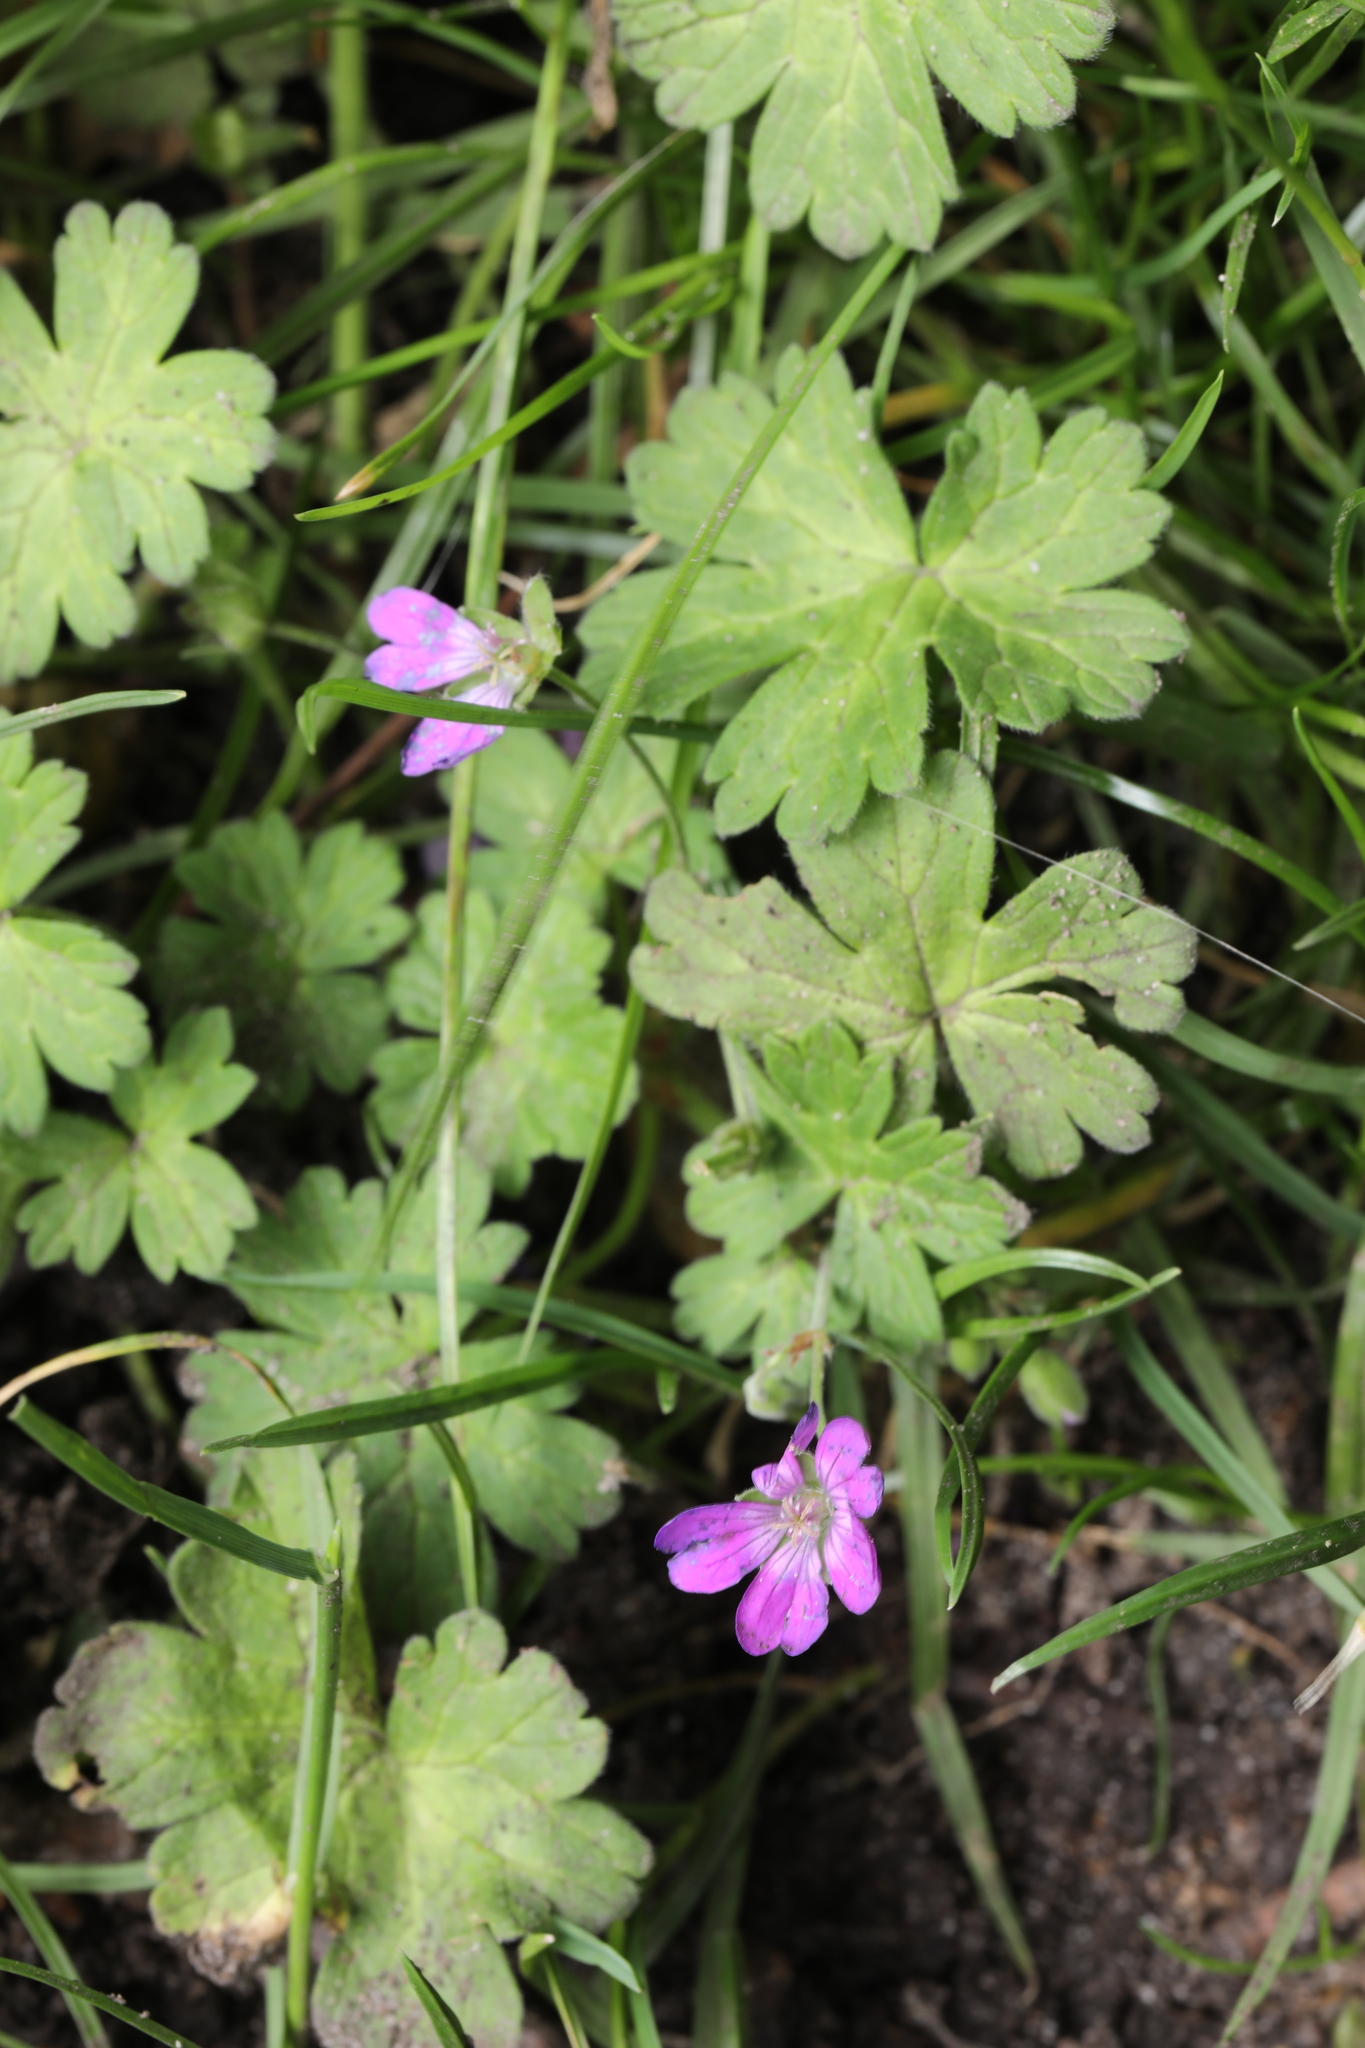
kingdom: Plantae
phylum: Tracheophyta
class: Magnoliopsida
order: Geraniales
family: Geraniaceae
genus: Geranium
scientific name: Geranium pyrenaicum
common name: Hedgerow crane's-bill
